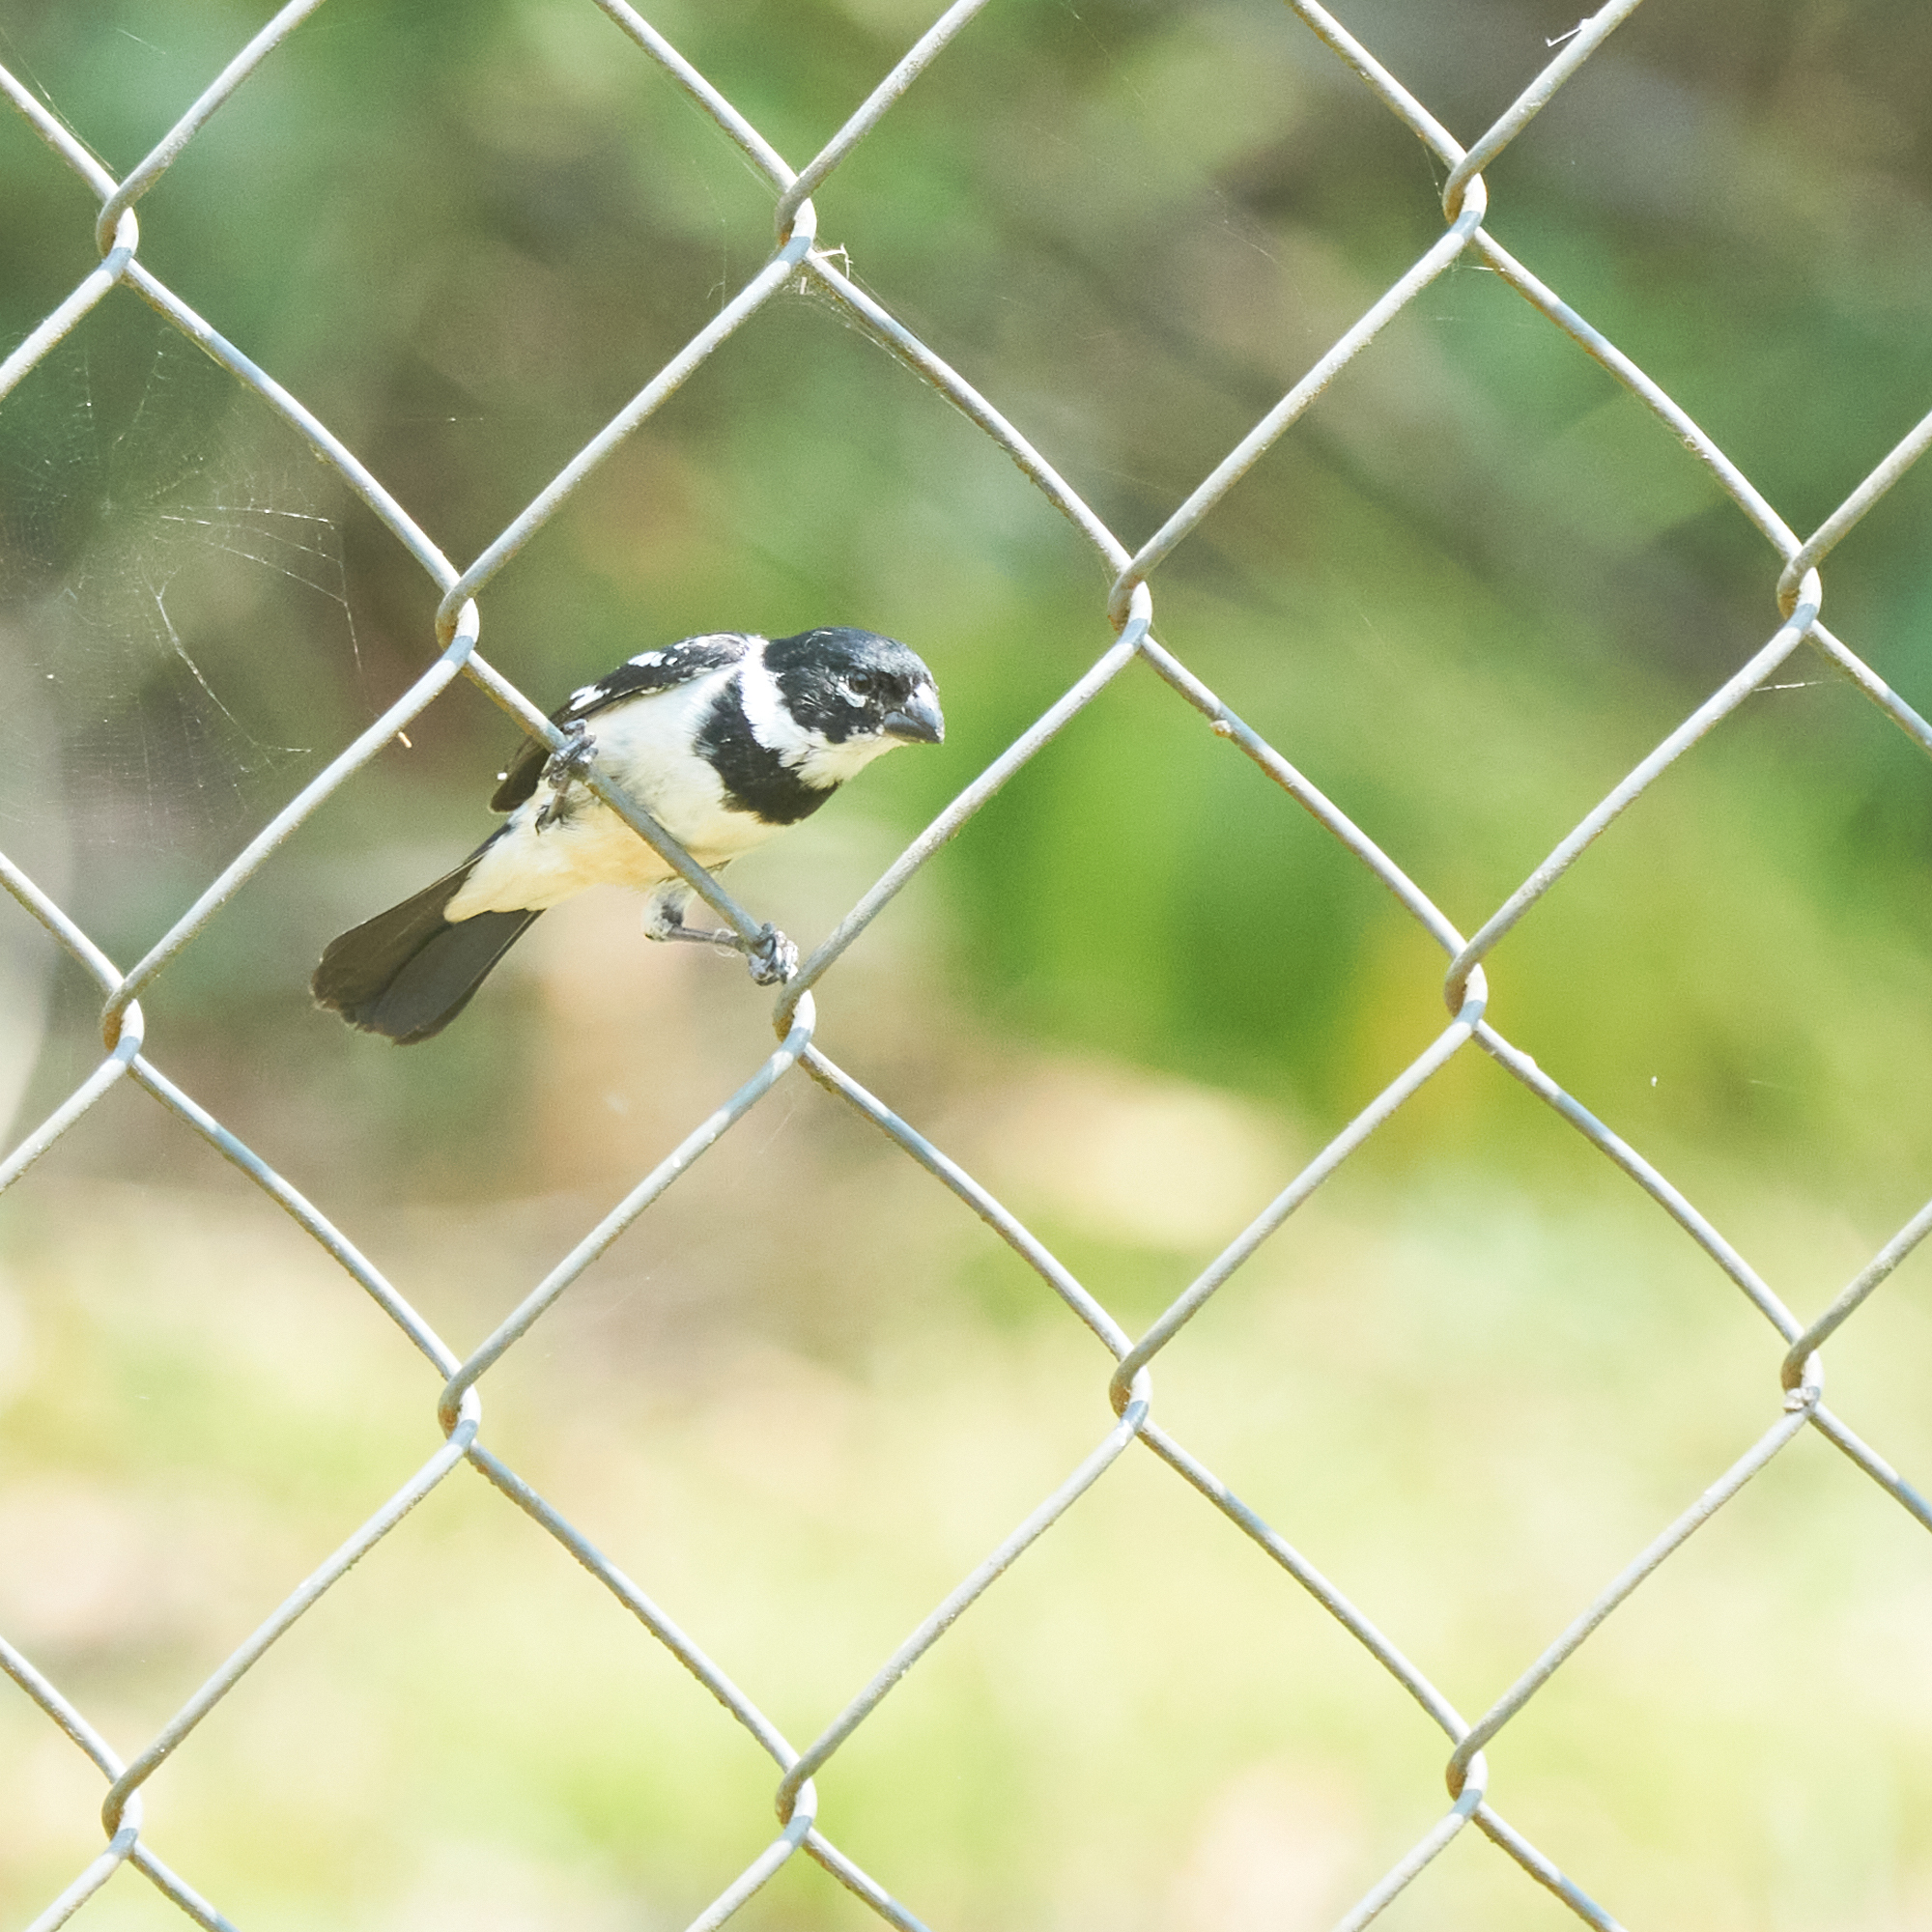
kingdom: Animalia
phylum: Chordata
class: Aves
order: Passeriformes
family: Thraupidae
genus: Sporophila
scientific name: Sporophila morelleti
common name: Morelet's seedeater
